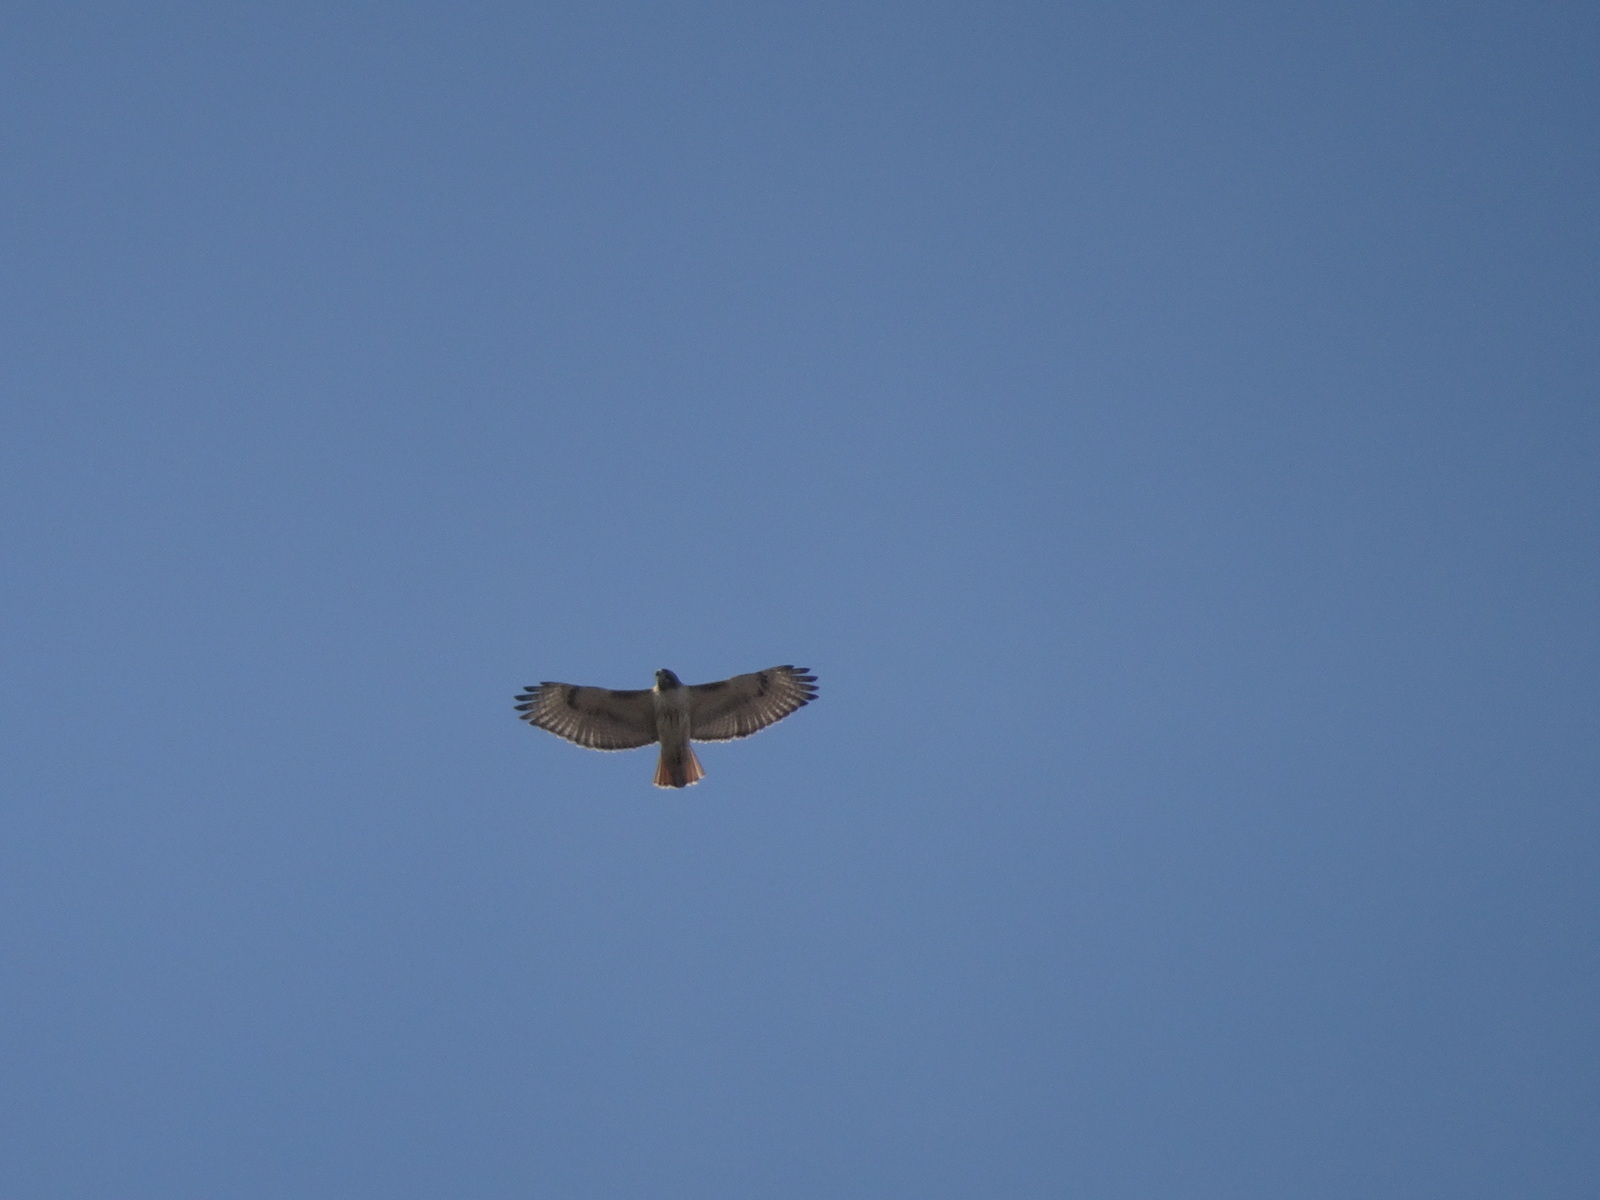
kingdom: Animalia
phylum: Chordata
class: Aves
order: Accipitriformes
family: Accipitridae
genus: Buteo
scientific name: Buteo jamaicensis
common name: Red-tailed hawk
